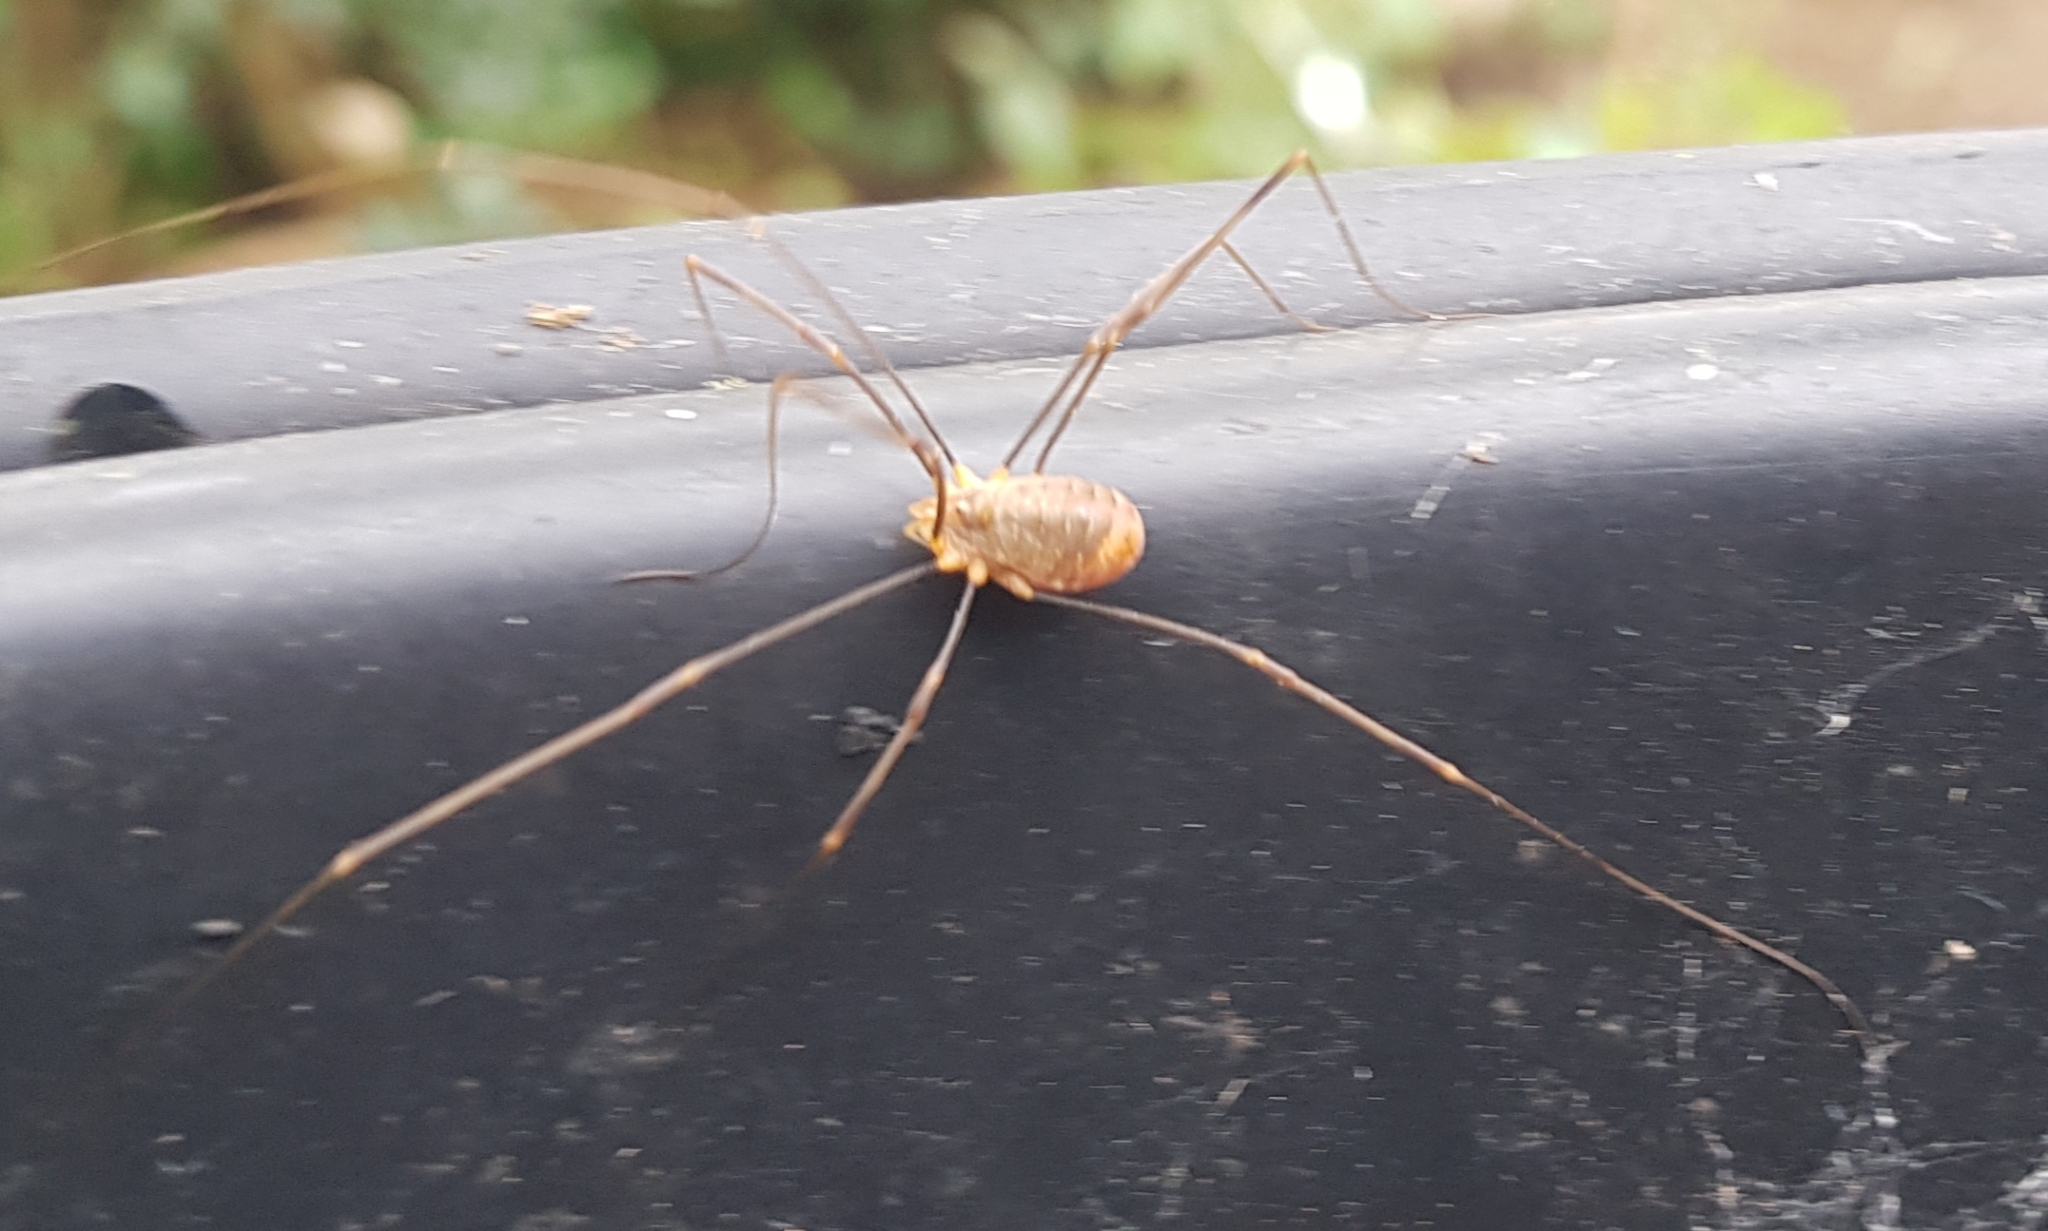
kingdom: Animalia
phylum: Arthropoda
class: Arachnida
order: Opiliones
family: Phalangiidae
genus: Opilio
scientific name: Opilio canestrinii
